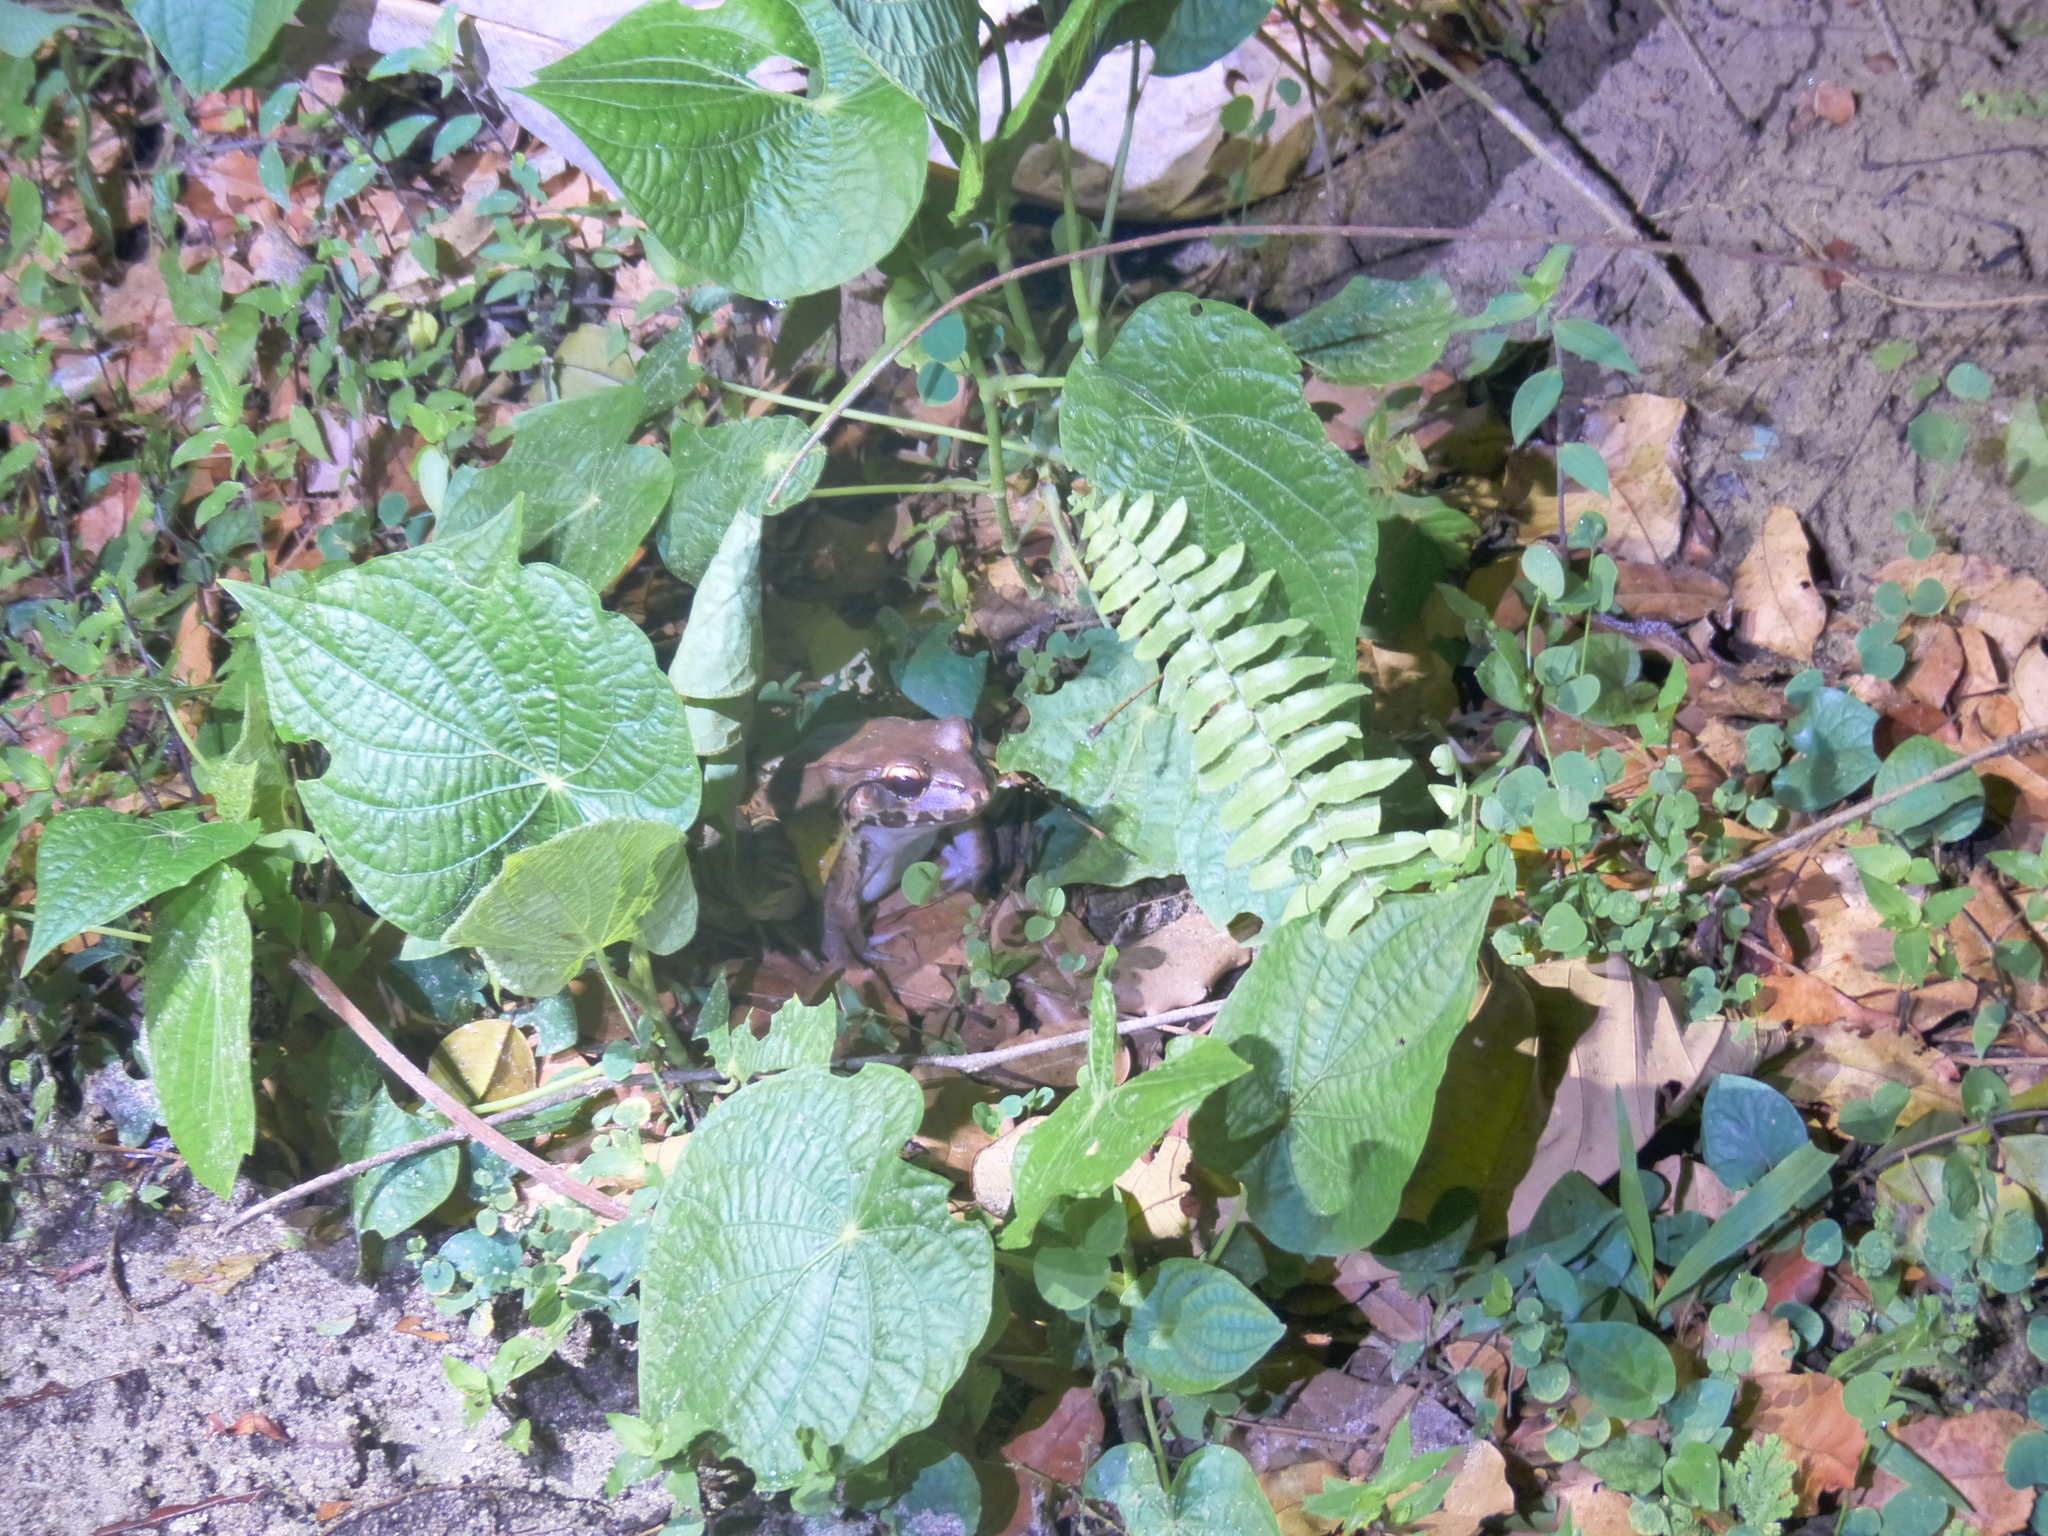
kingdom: Animalia
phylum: Chordata
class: Amphibia
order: Anura
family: Leptodactylidae
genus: Leptodactylus
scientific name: Leptodactylus savagei
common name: Savage's thin-toed frog
